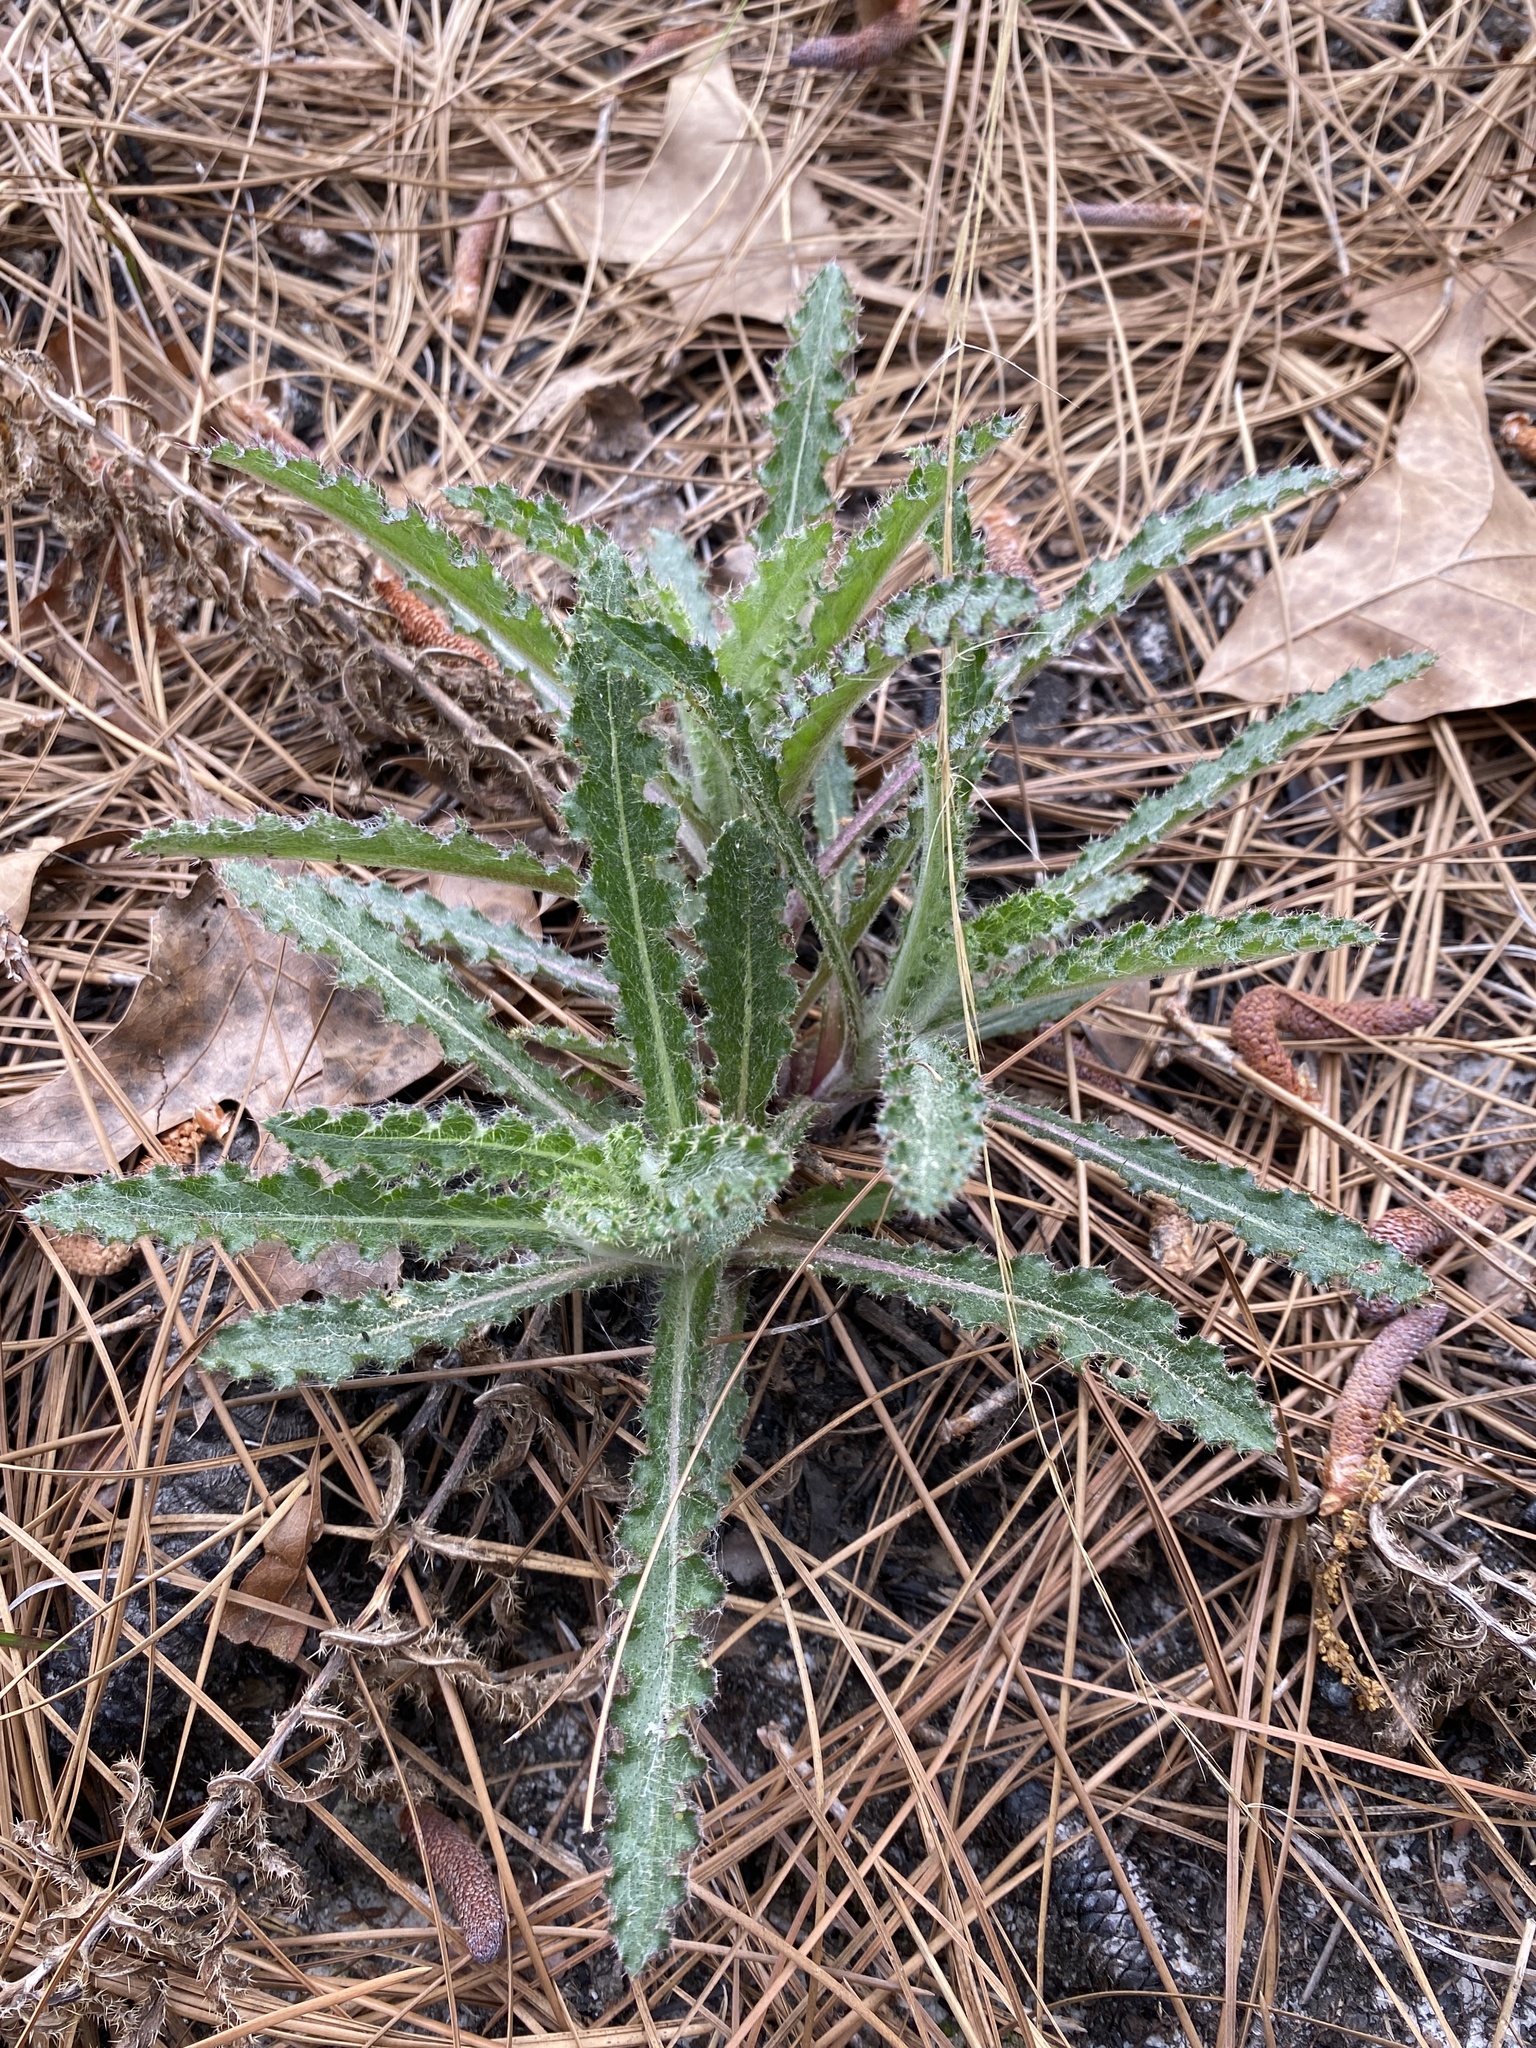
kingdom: Plantae
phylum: Tracheophyta
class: Magnoliopsida
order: Asterales
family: Asteraceae
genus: Cirsium
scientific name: Cirsium repandum
